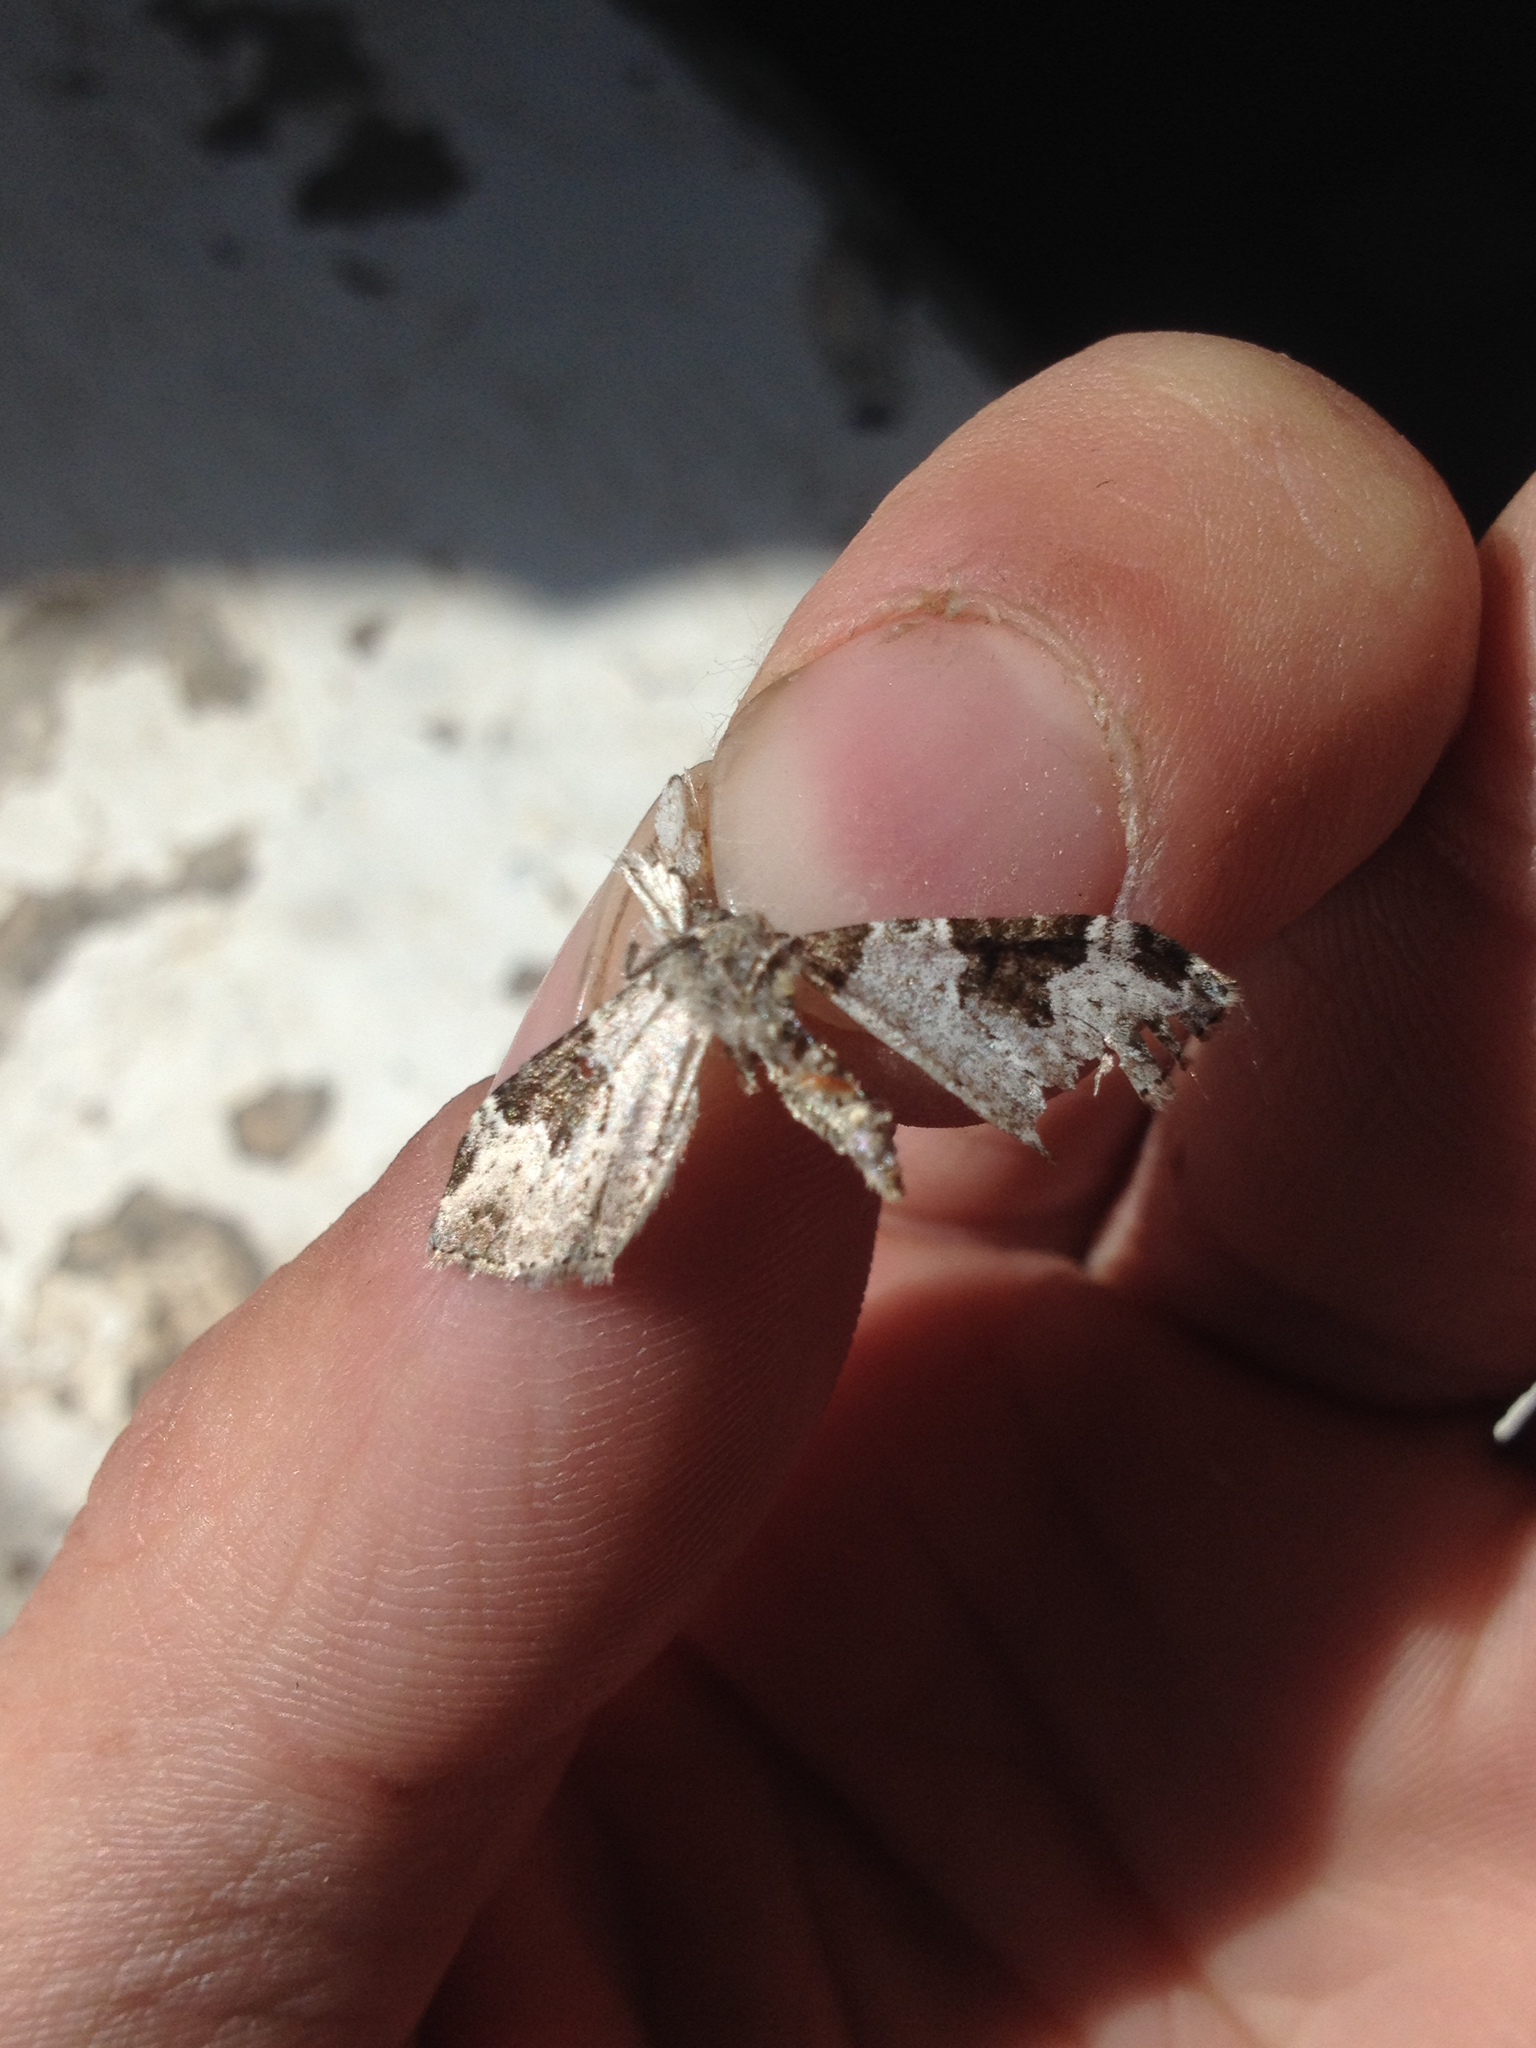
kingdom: Animalia
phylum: Arthropoda
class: Insecta
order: Lepidoptera
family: Geometridae
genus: Xanthorhoe
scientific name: Xanthorhoe fluctuata
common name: Garden carpet
